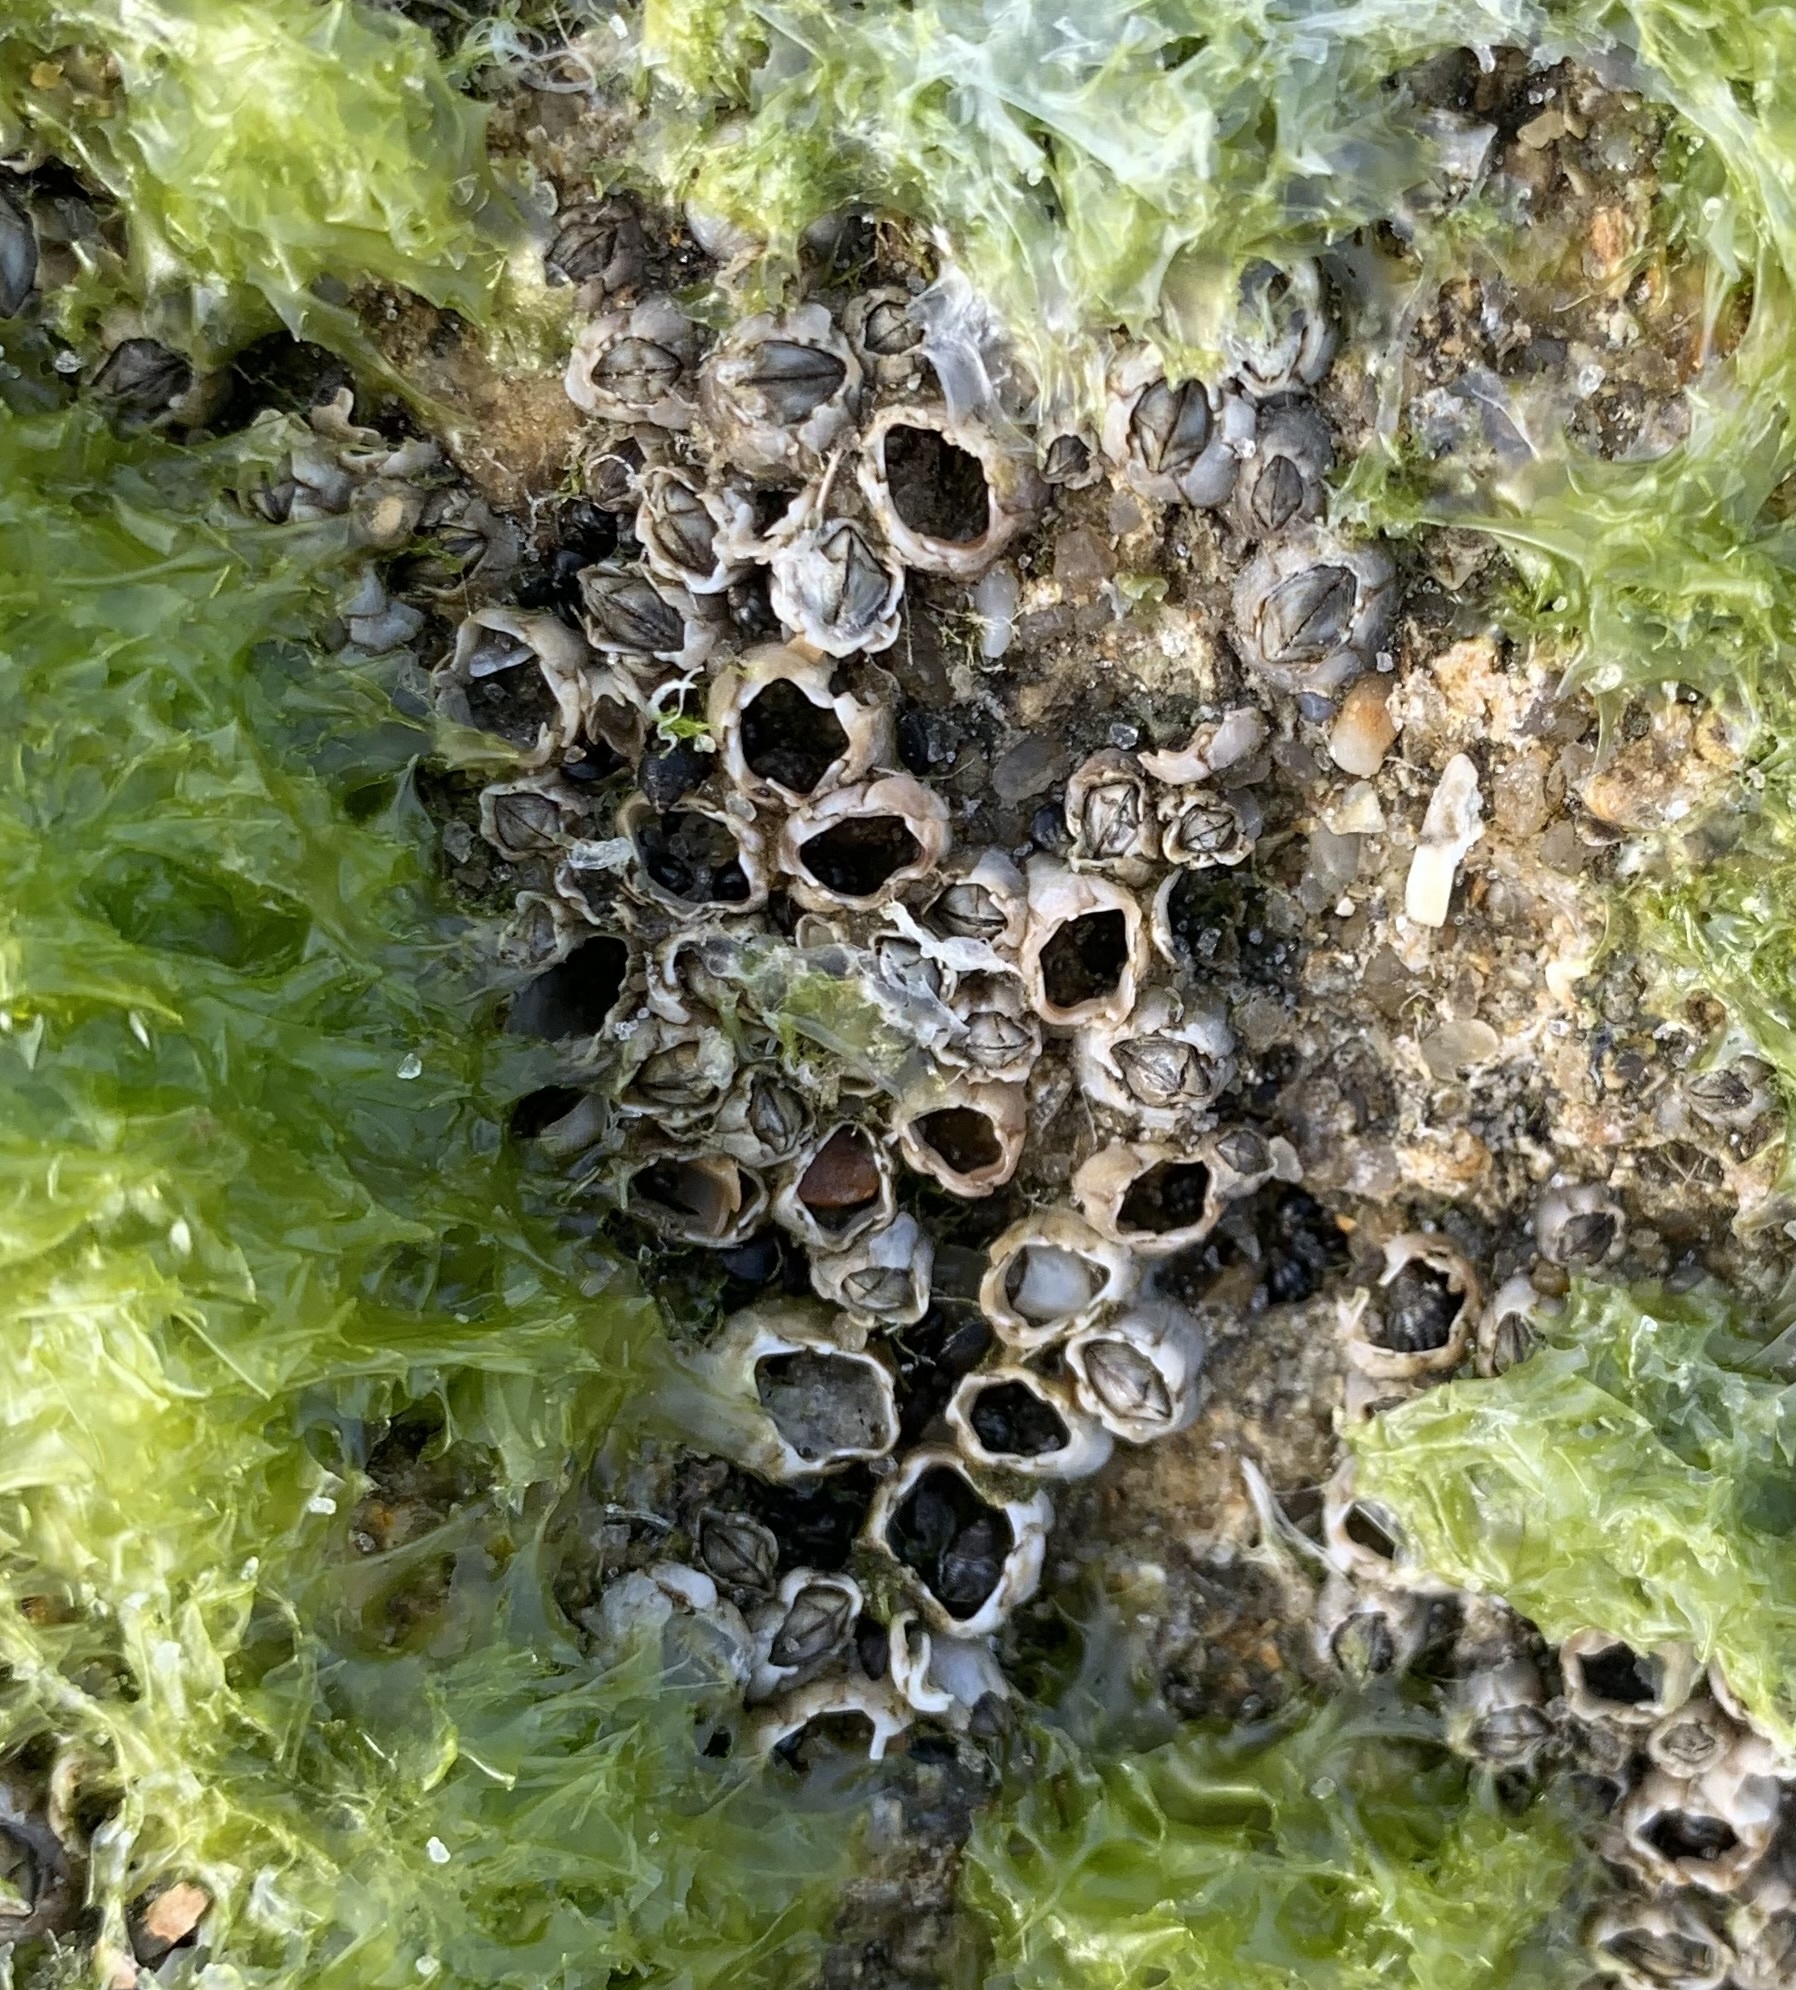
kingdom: Animalia
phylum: Arthropoda
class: Maxillopoda
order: Sessilia
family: Chthamalidae
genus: Chthamalus
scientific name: Chthamalus fragilis
